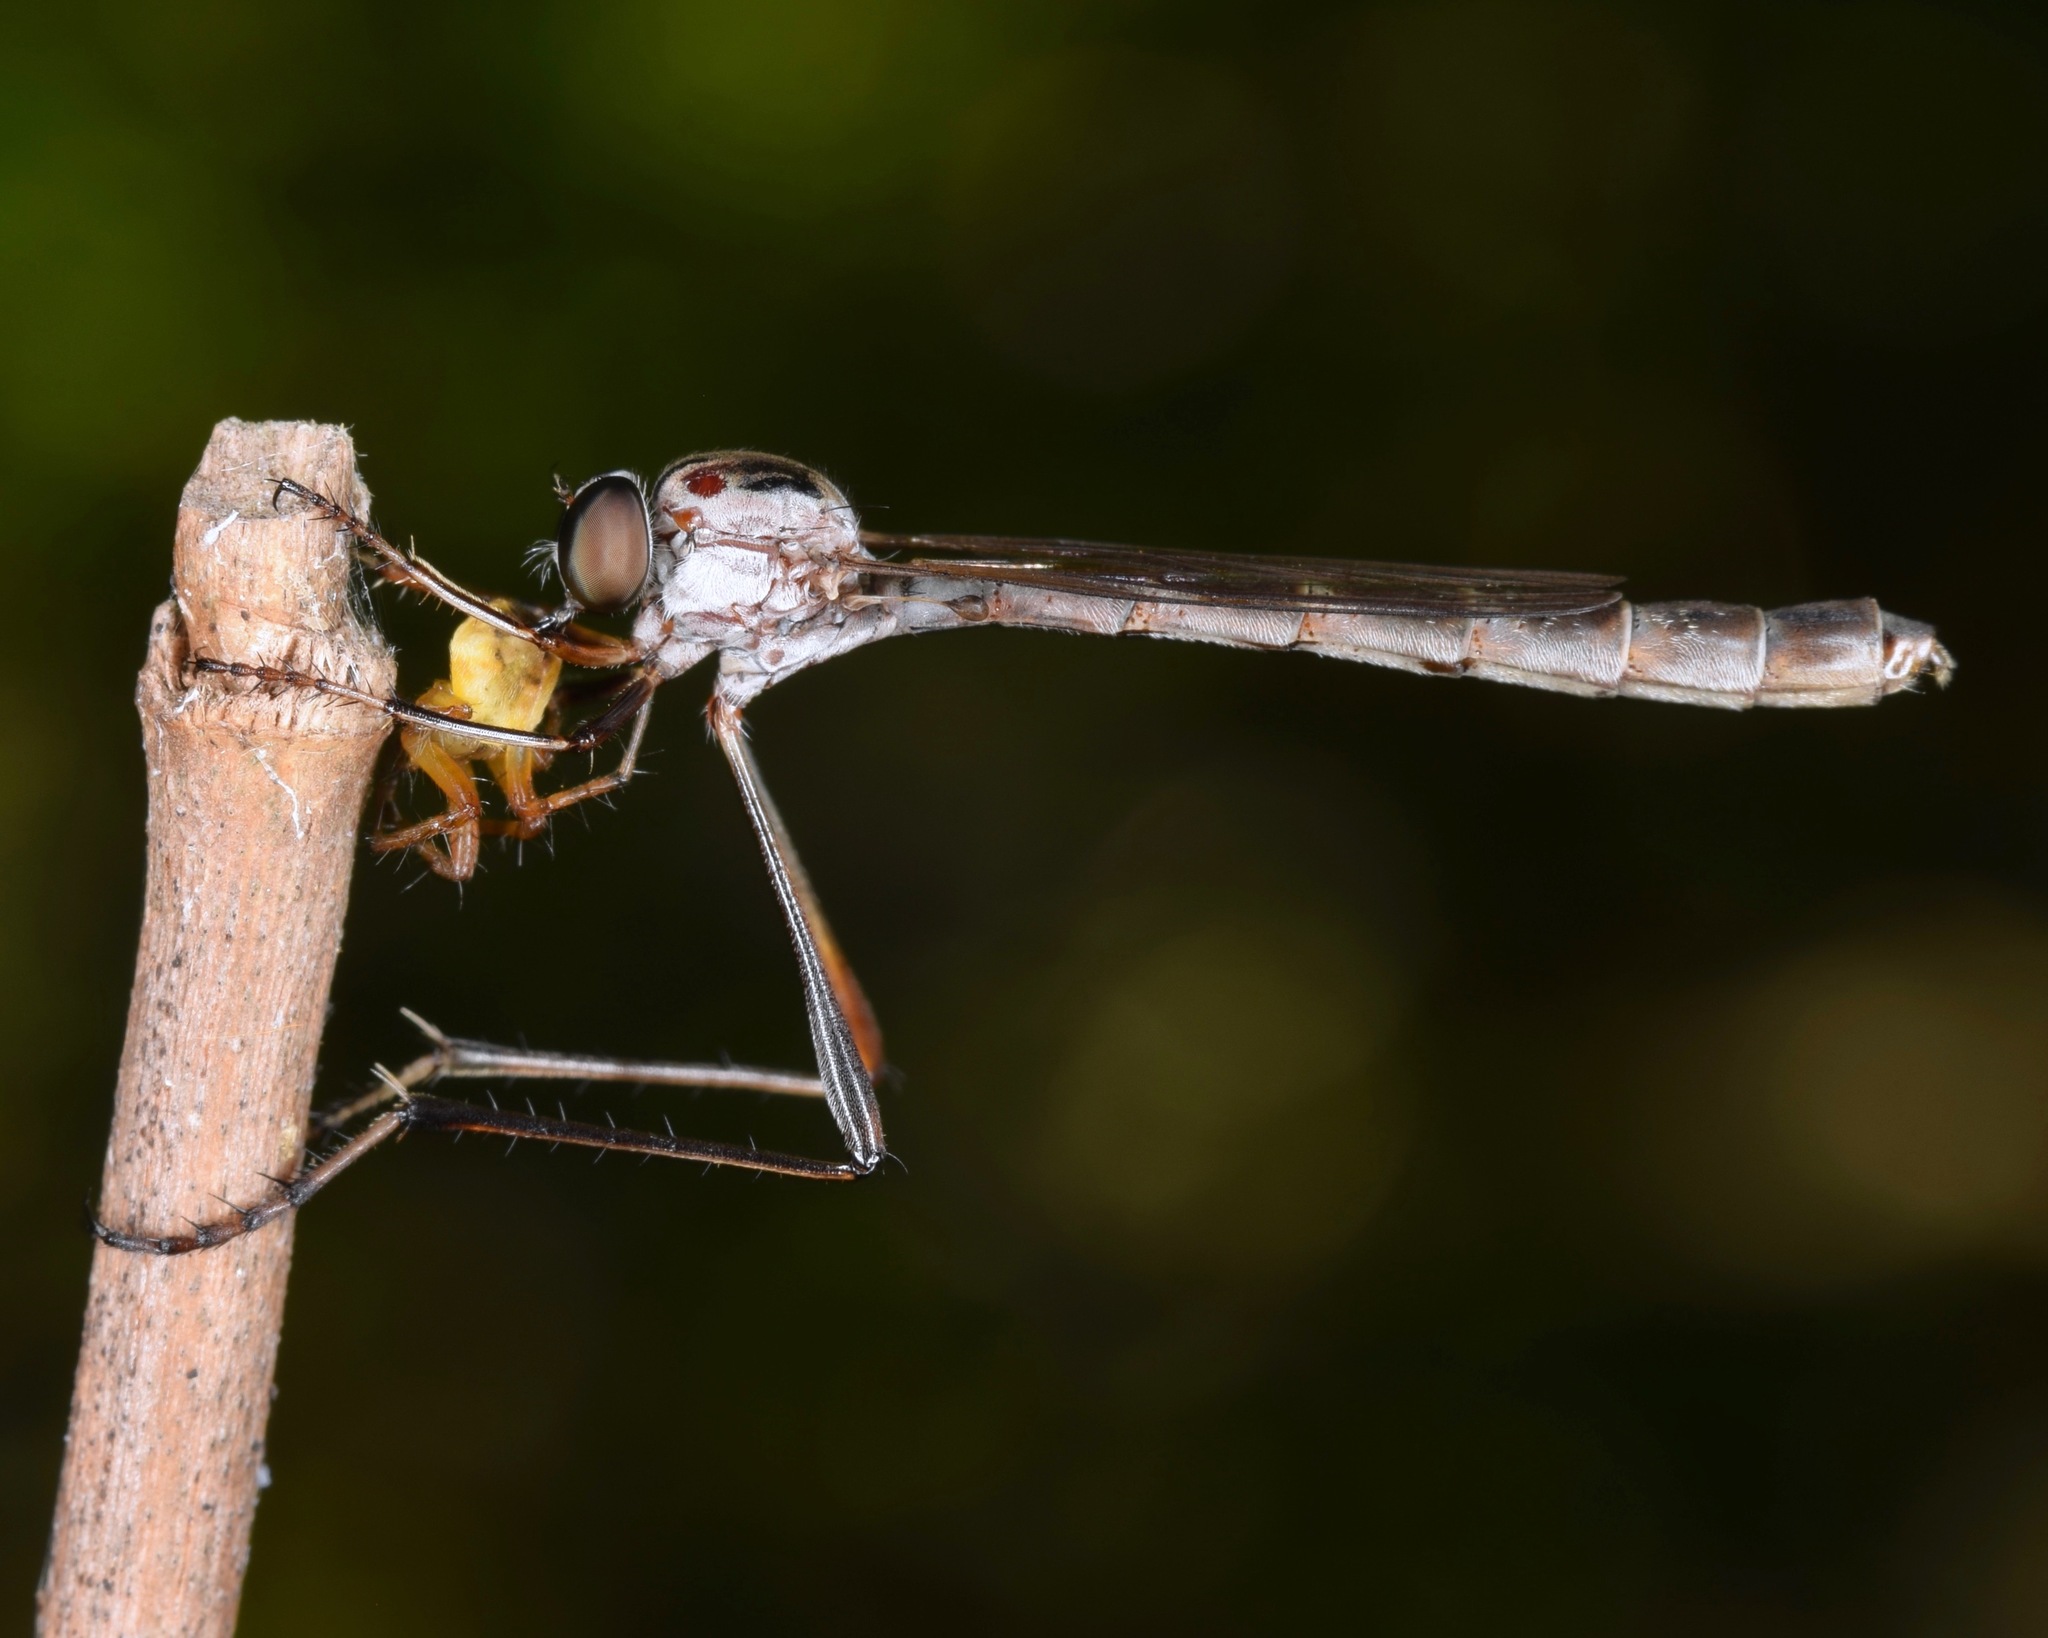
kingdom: Animalia
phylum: Arthropoda
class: Insecta
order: Diptera
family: Asilidae
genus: Apachekolos
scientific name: Apachekolos tenuipes
